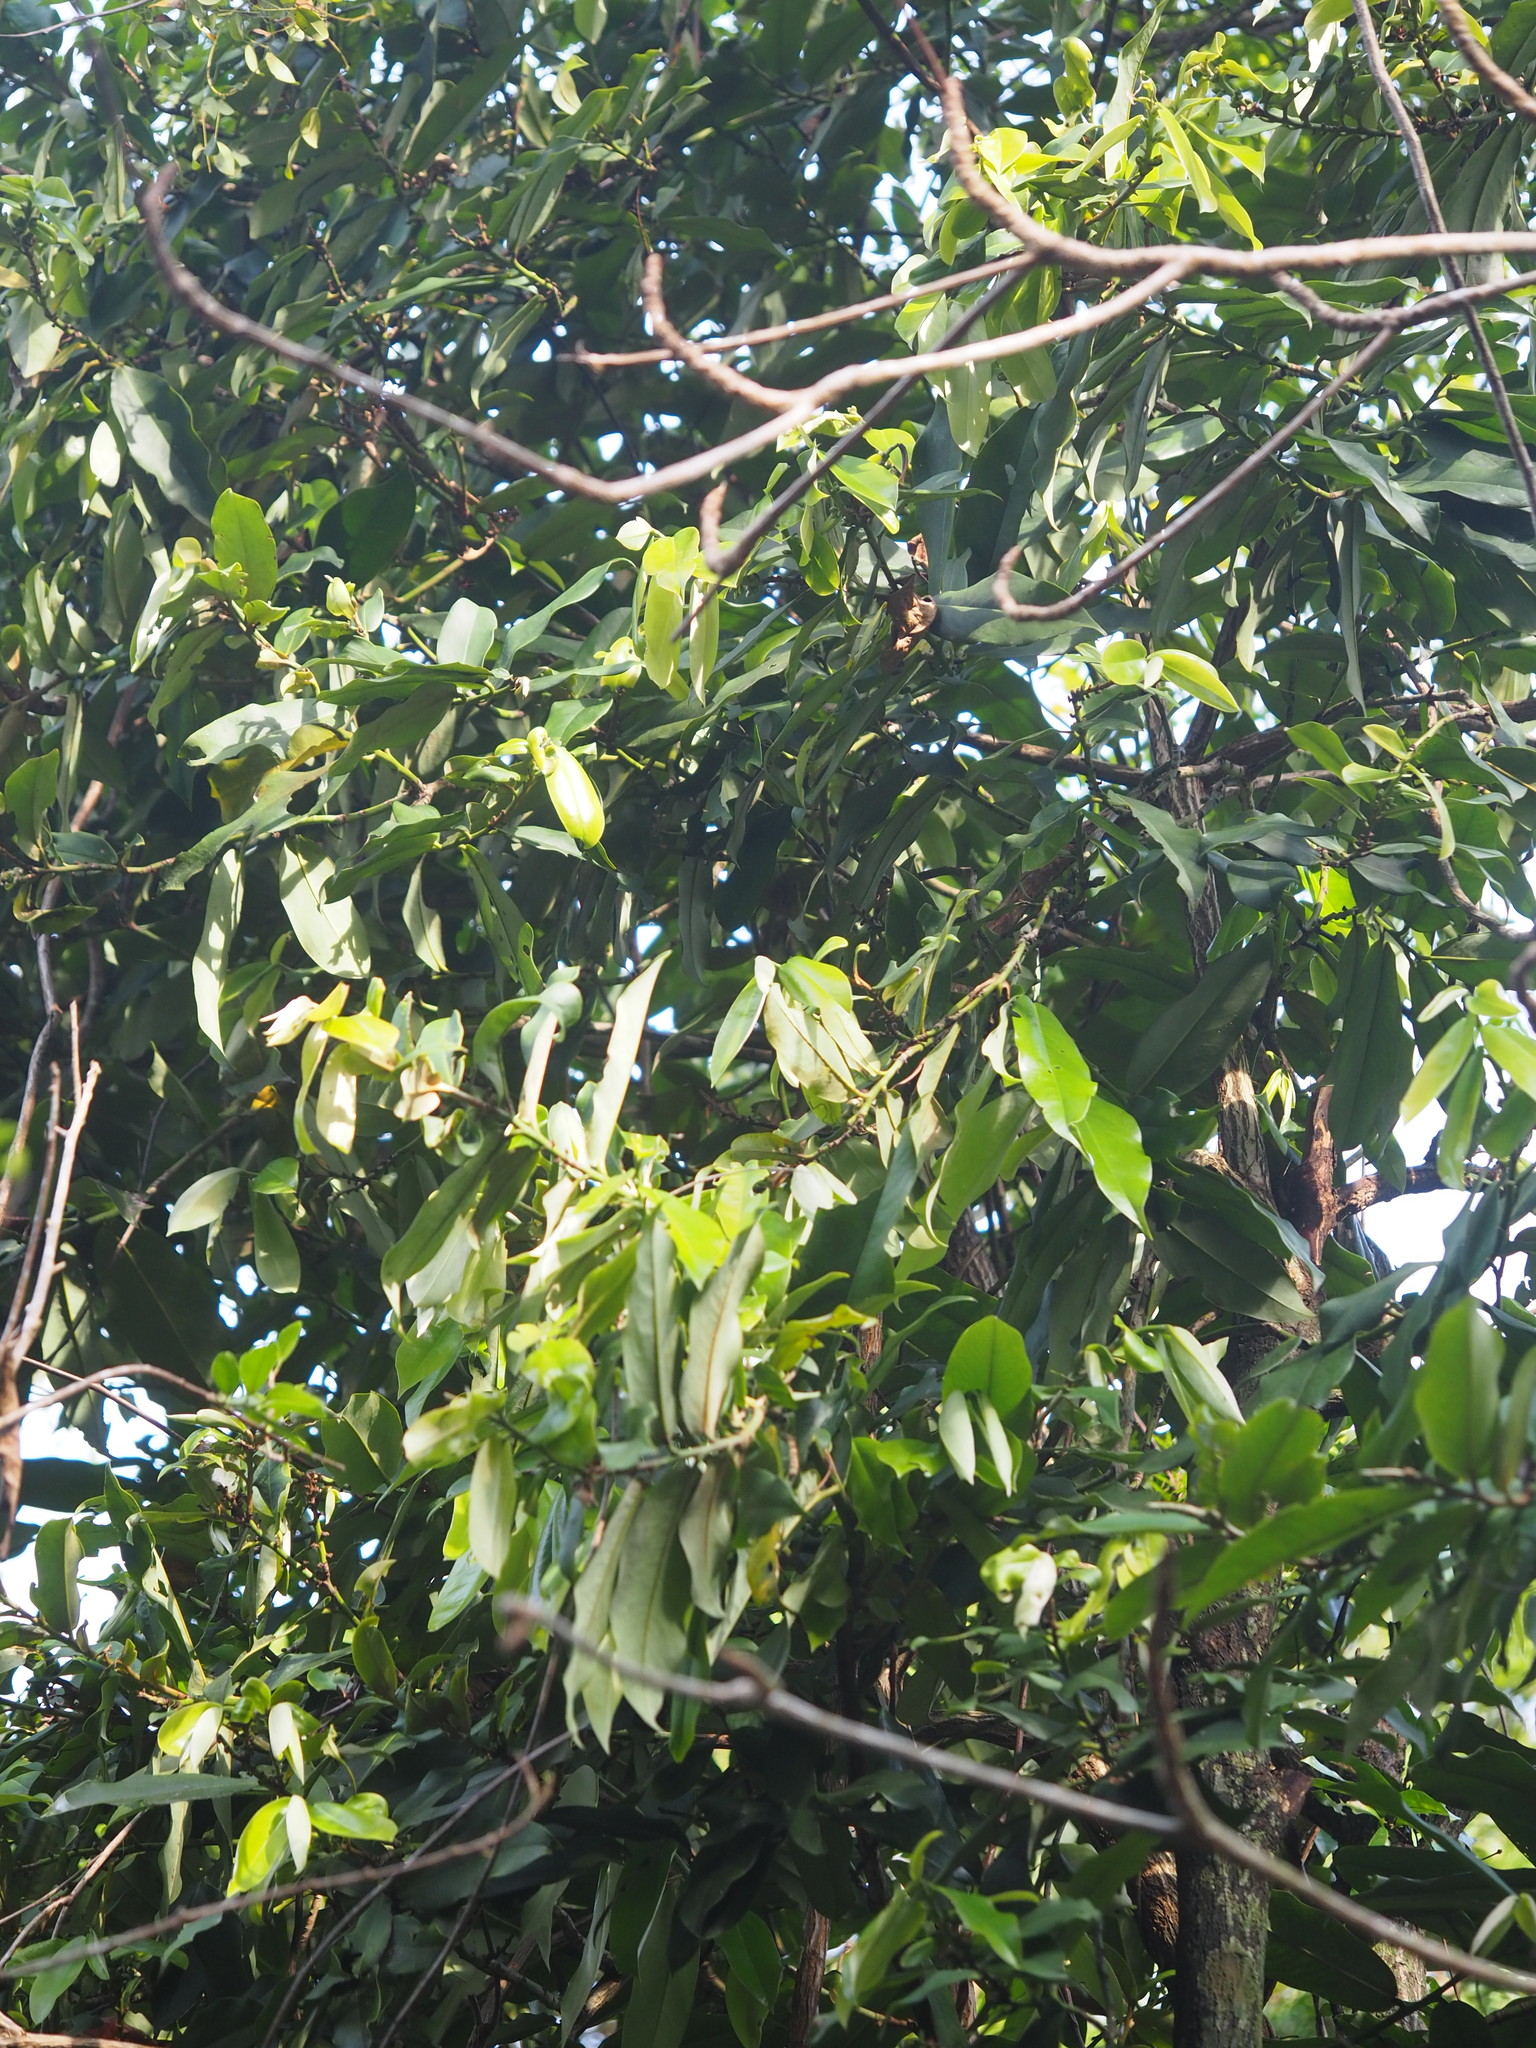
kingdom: Plantae
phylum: Tracheophyta
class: Magnoliopsida
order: Ericales
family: Ebenaceae
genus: Diospyros
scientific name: Diospyros blancoi
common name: Mabola-tree
